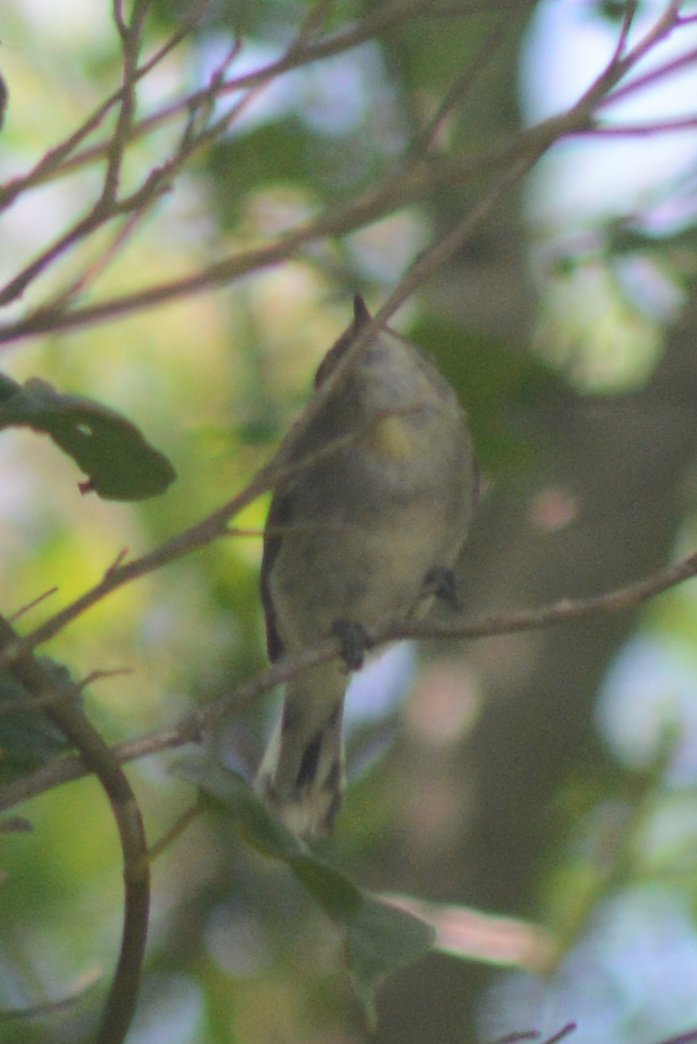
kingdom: Animalia
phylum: Chordata
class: Aves
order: Passeriformes
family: Acanthizidae
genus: Gerygone
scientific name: Gerygone igata
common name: Grey gerygone
